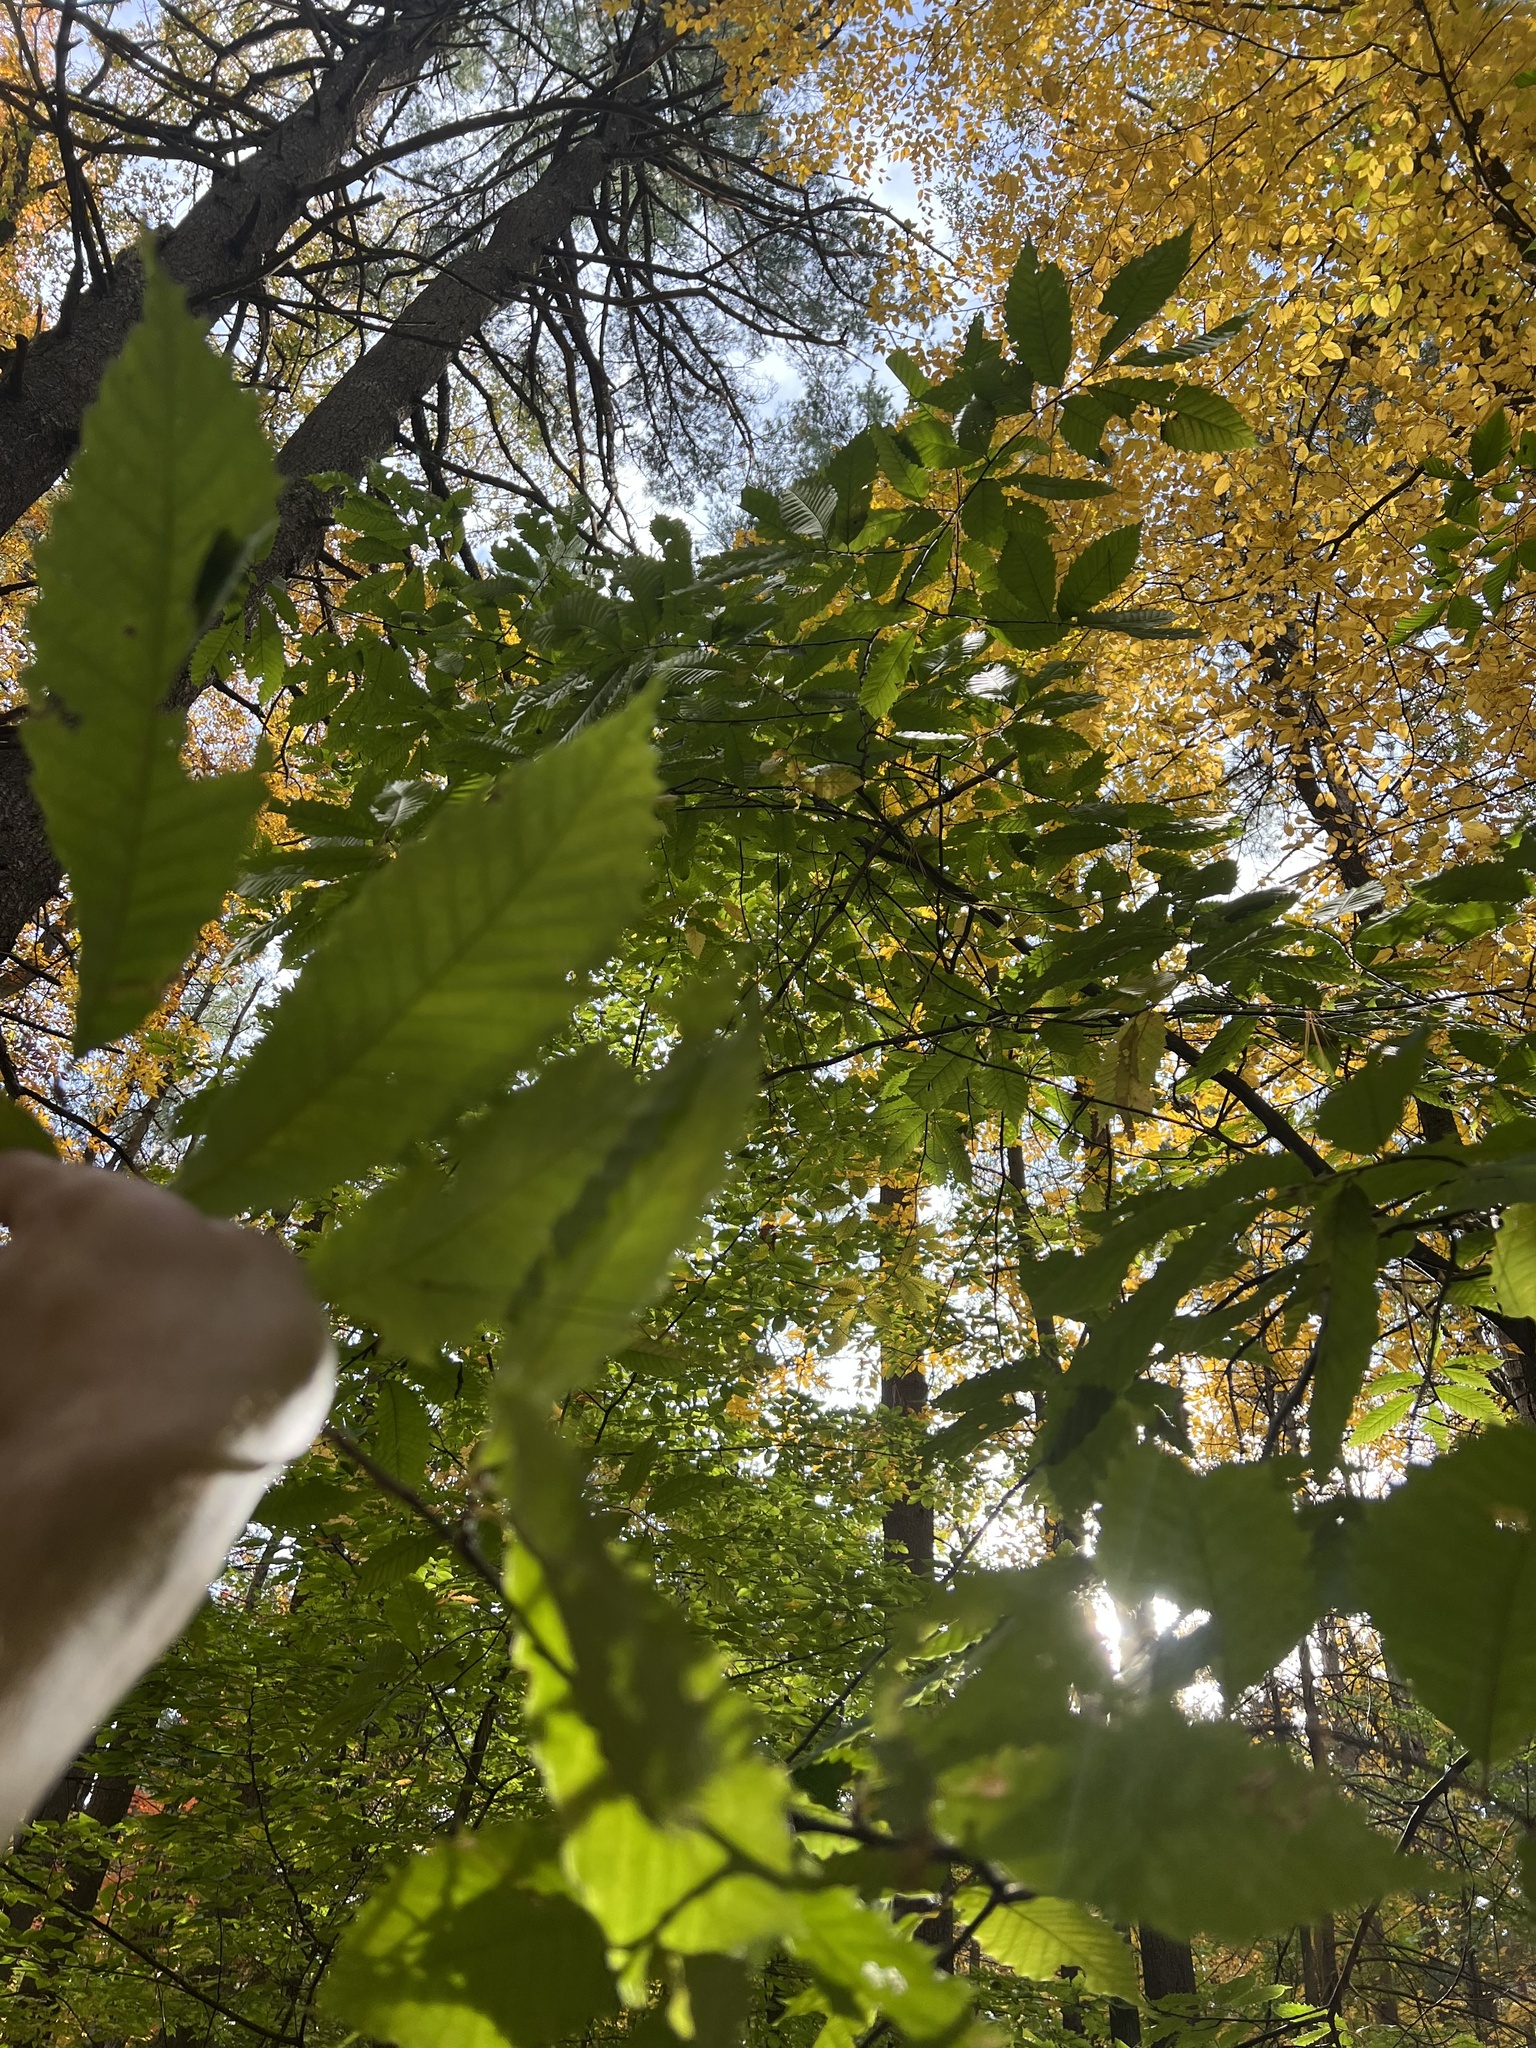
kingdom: Plantae
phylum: Tracheophyta
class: Magnoliopsida
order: Fagales
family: Fagaceae
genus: Castanea
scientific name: Castanea dentata
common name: American chestnut
